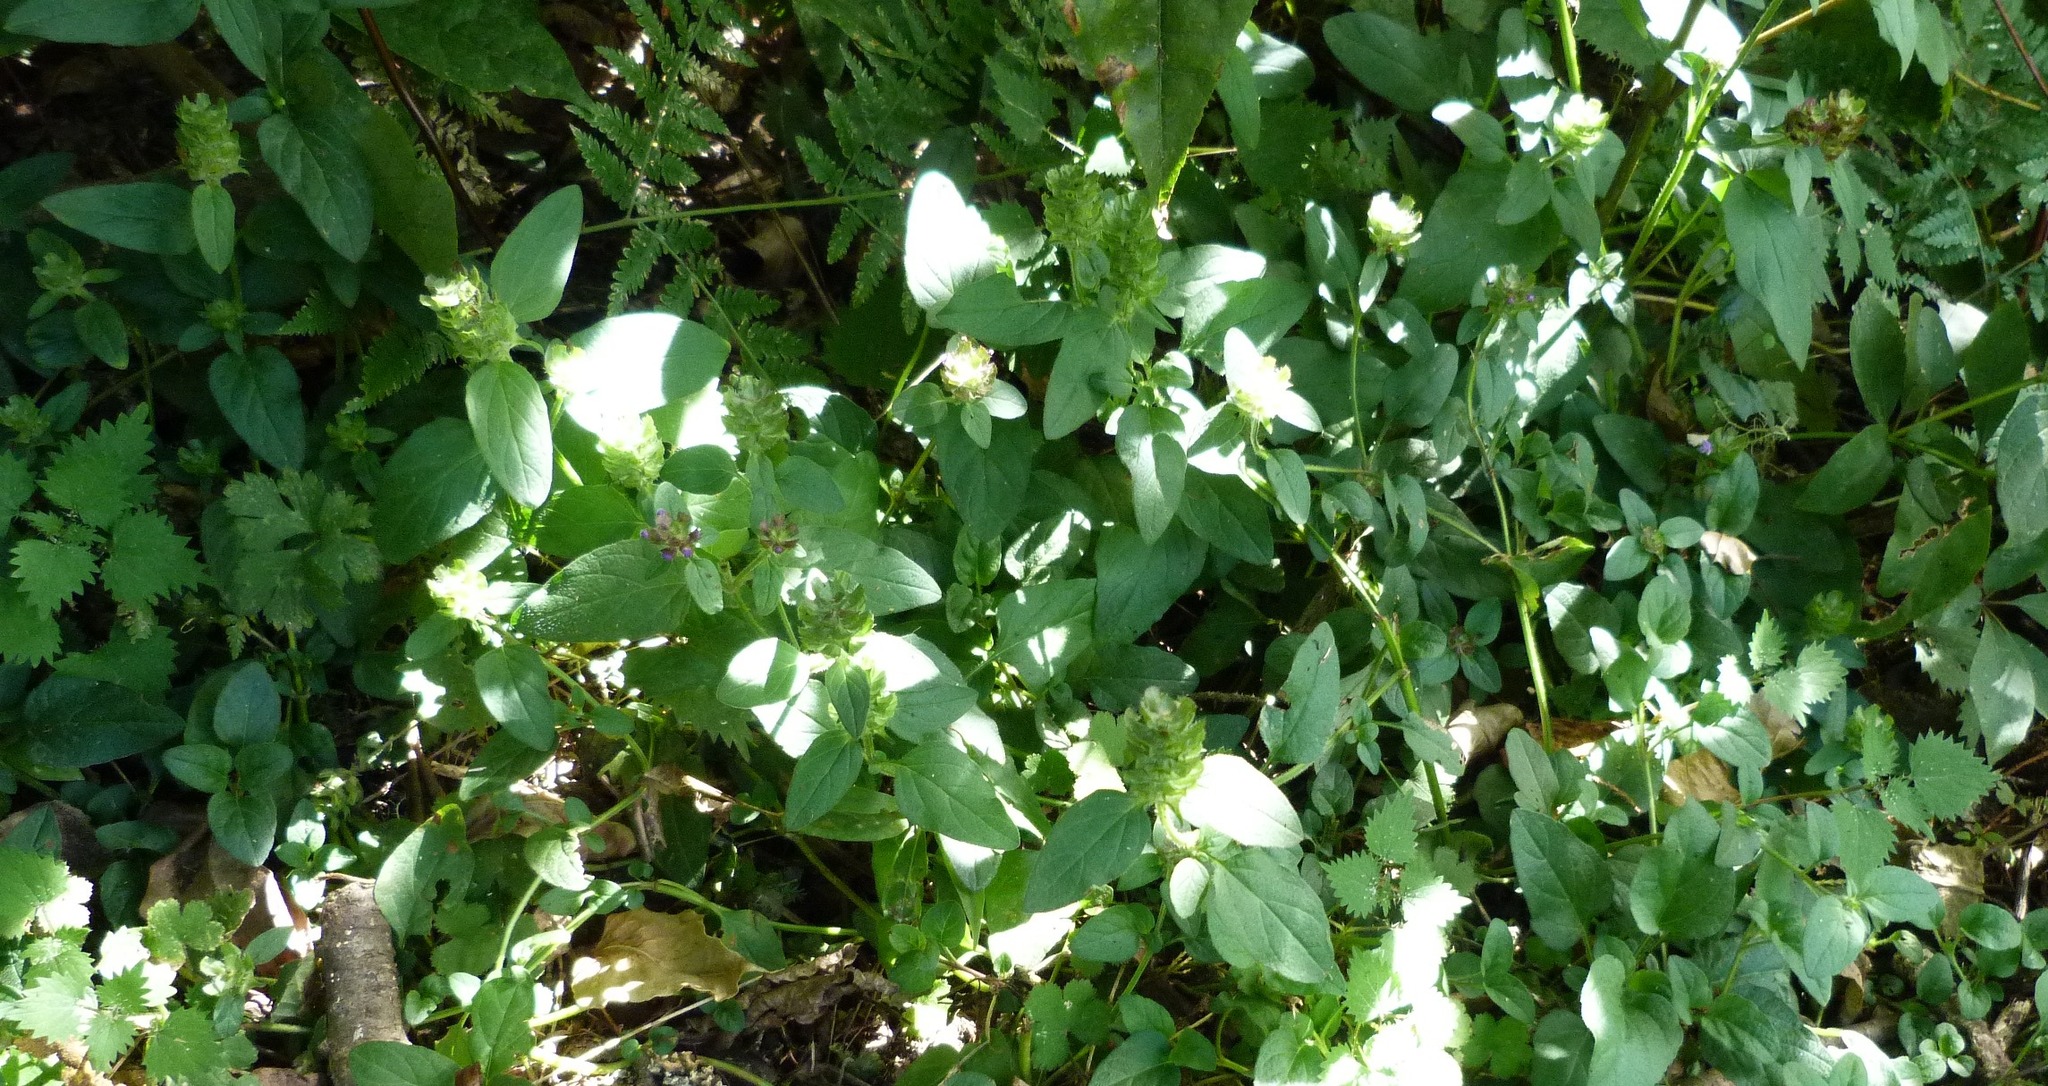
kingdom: Plantae
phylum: Tracheophyta
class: Magnoliopsida
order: Lamiales
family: Lamiaceae
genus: Prunella
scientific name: Prunella vulgaris
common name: Heal-all
